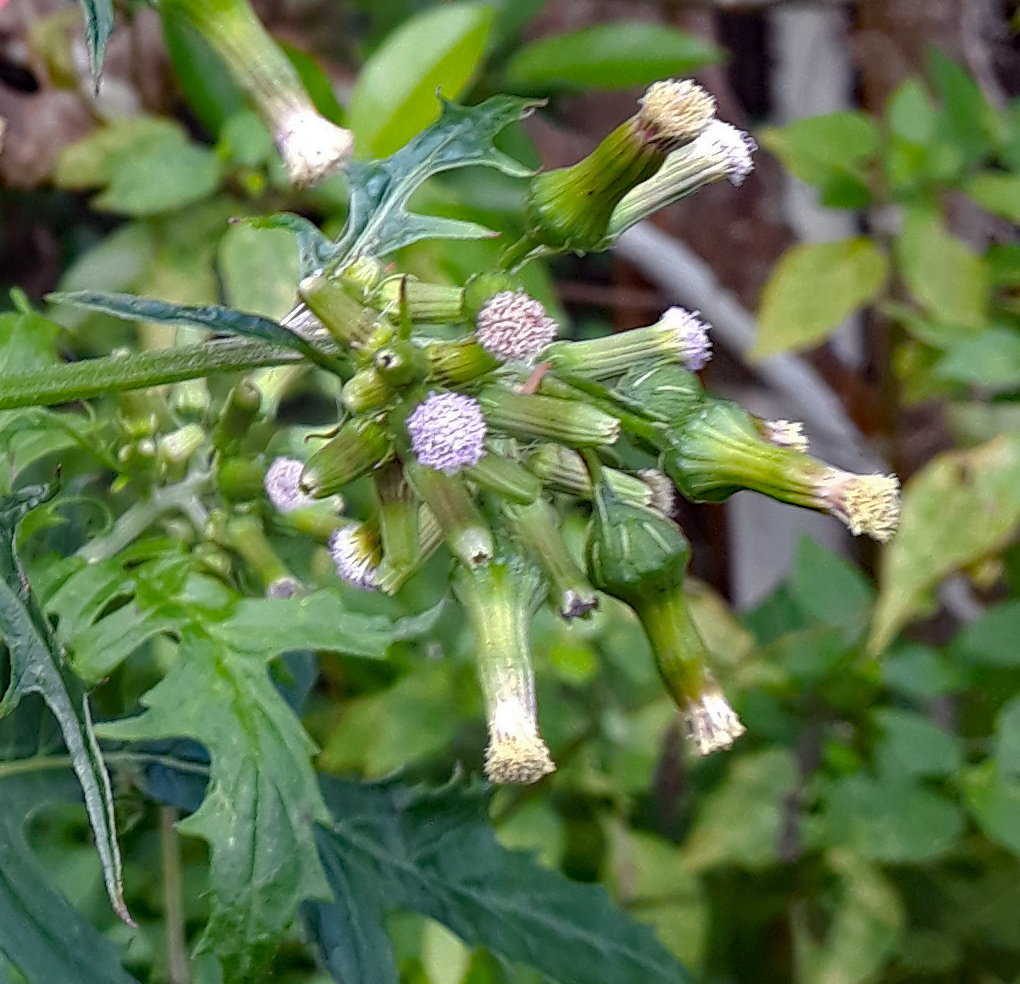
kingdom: Plantae
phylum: Tracheophyta
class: Magnoliopsida
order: Asterales
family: Asteraceae
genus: Erechtites
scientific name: Erechtites valerianifolius
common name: Tropical burnweed
